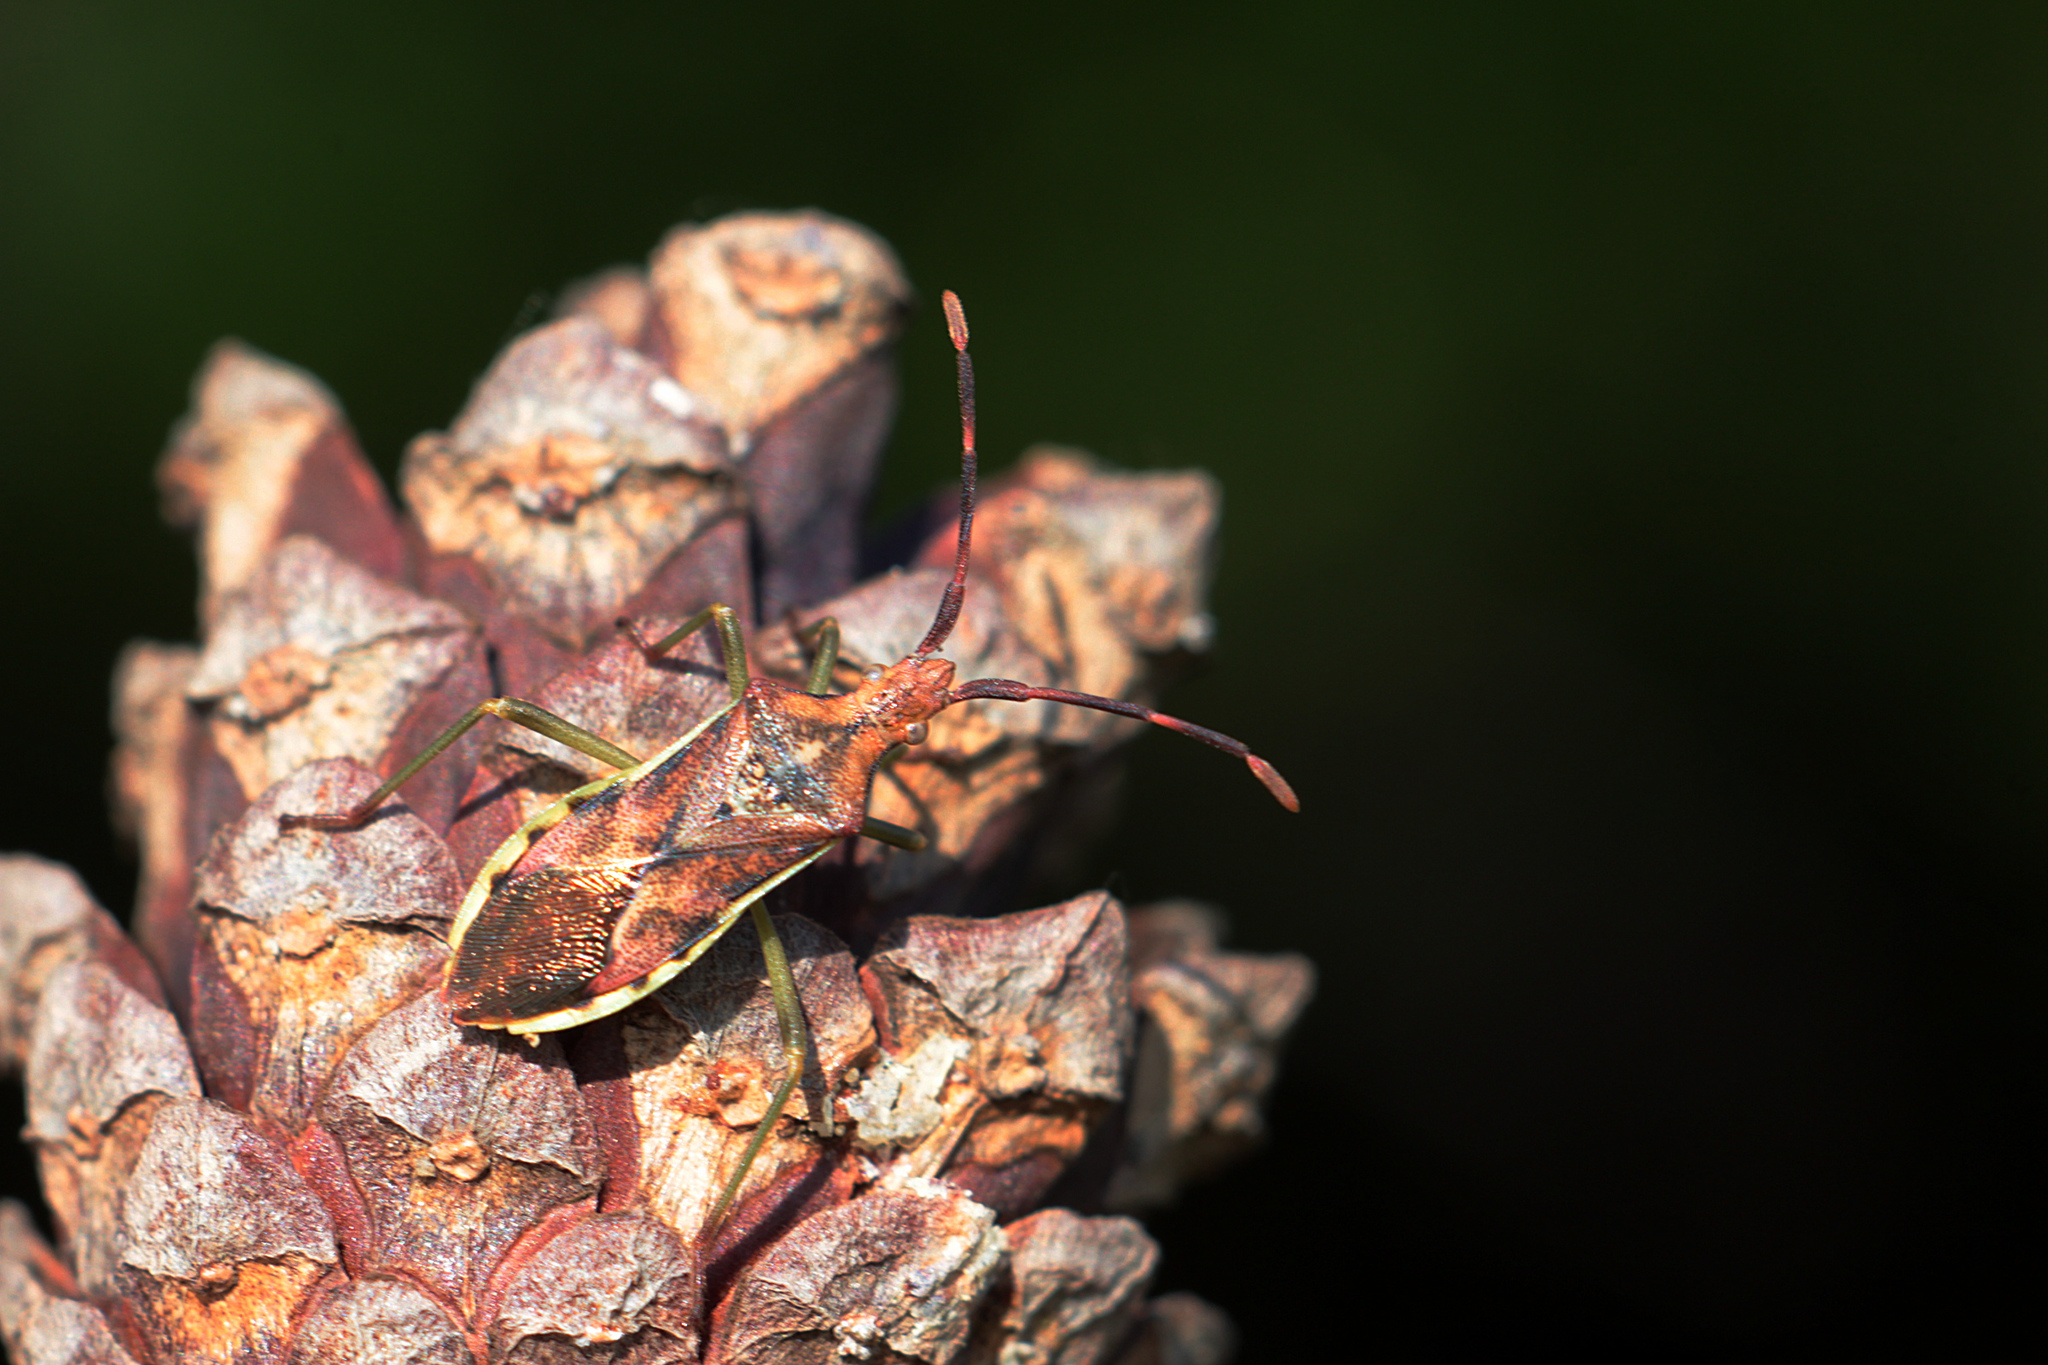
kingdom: Animalia
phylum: Arthropoda
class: Insecta
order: Hemiptera
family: Coreidae
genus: Gonocerus
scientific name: Gonocerus juniperi
